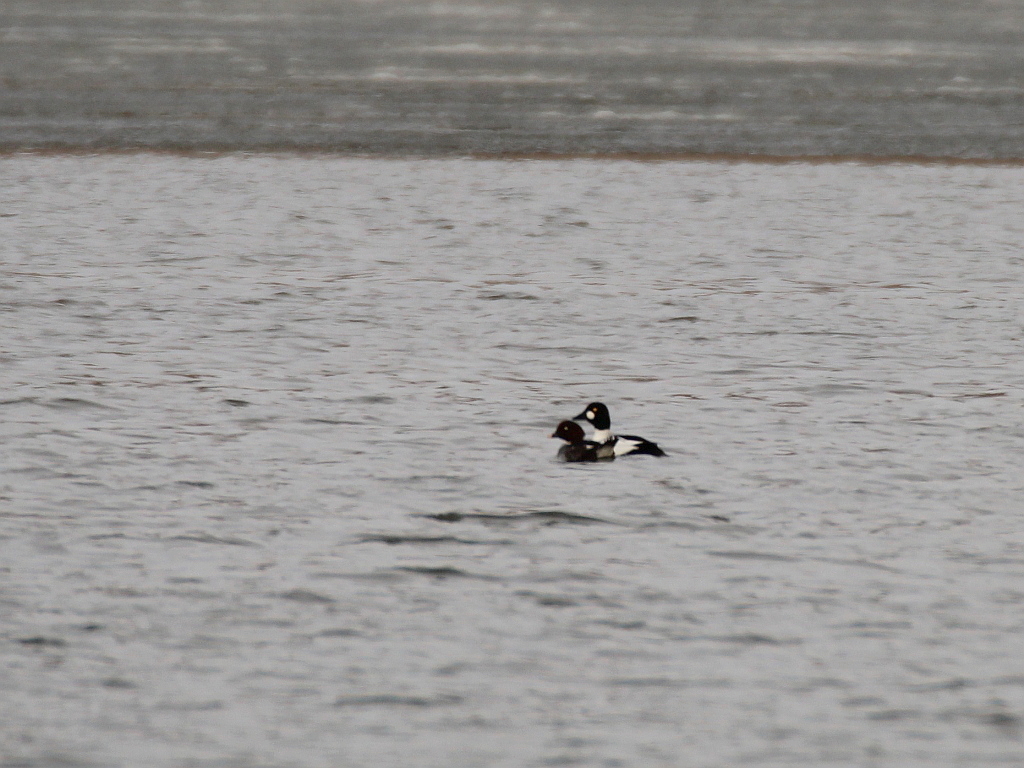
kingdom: Animalia
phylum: Chordata
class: Aves
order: Anseriformes
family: Anatidae
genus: Bucephala
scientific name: Bucephala clangula
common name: Common goldeneye
